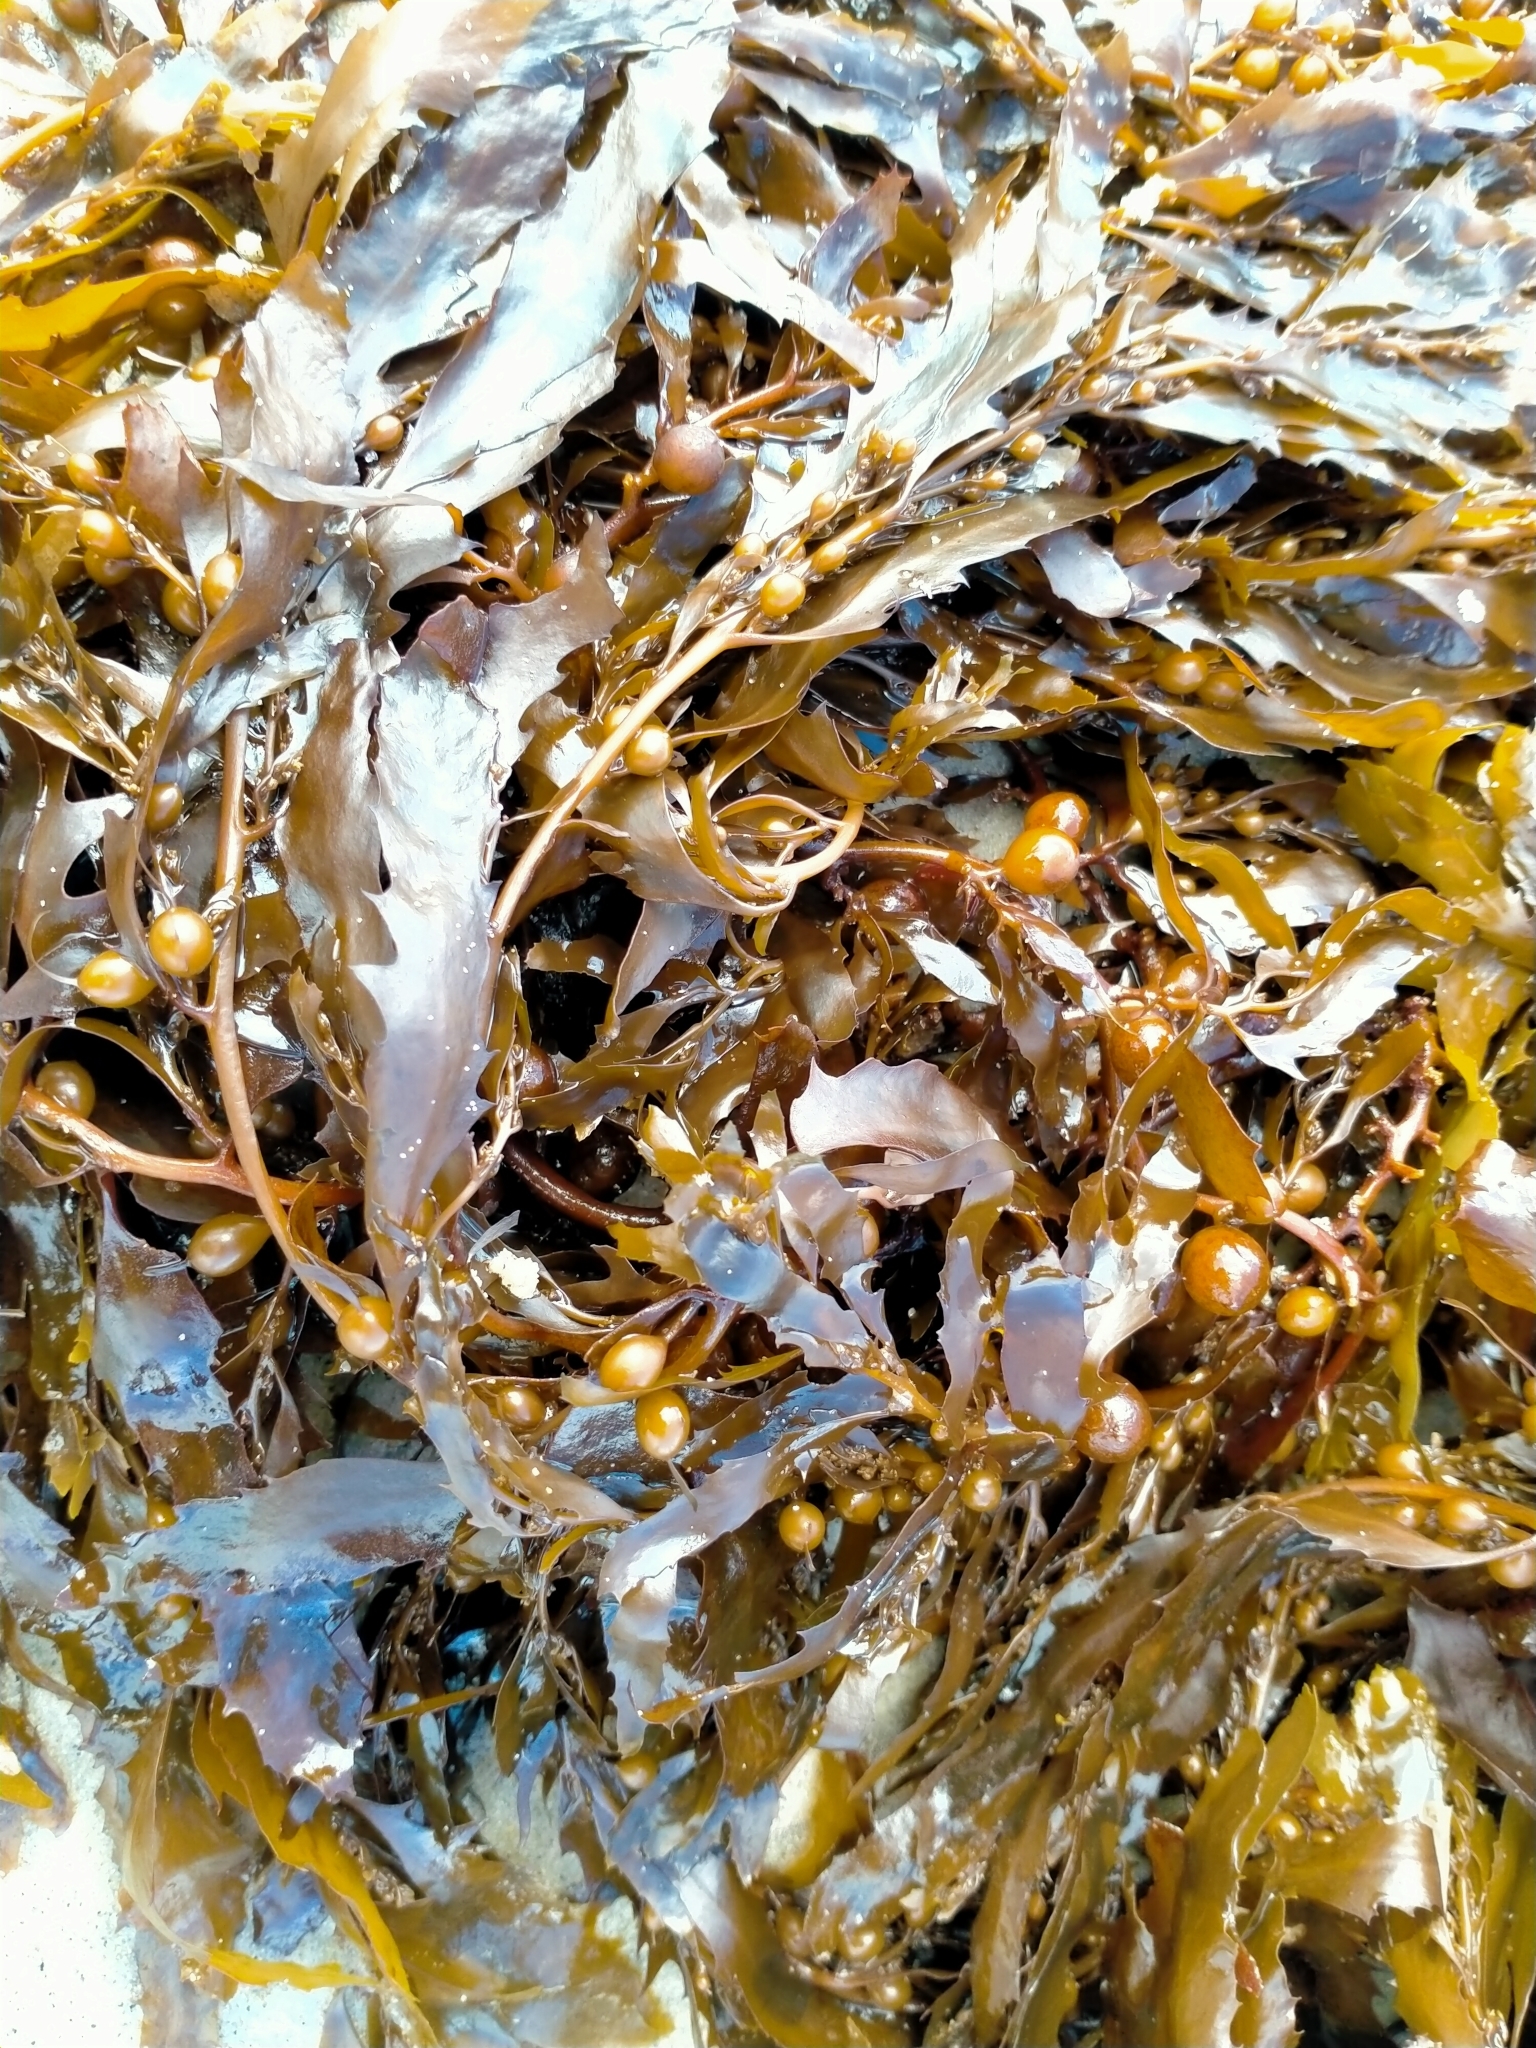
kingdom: Chromista
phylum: Ochrophyta
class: Phaeophyceae
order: Fucales
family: Sargassaceae
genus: Sargassum
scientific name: Sargassum sinclairii
